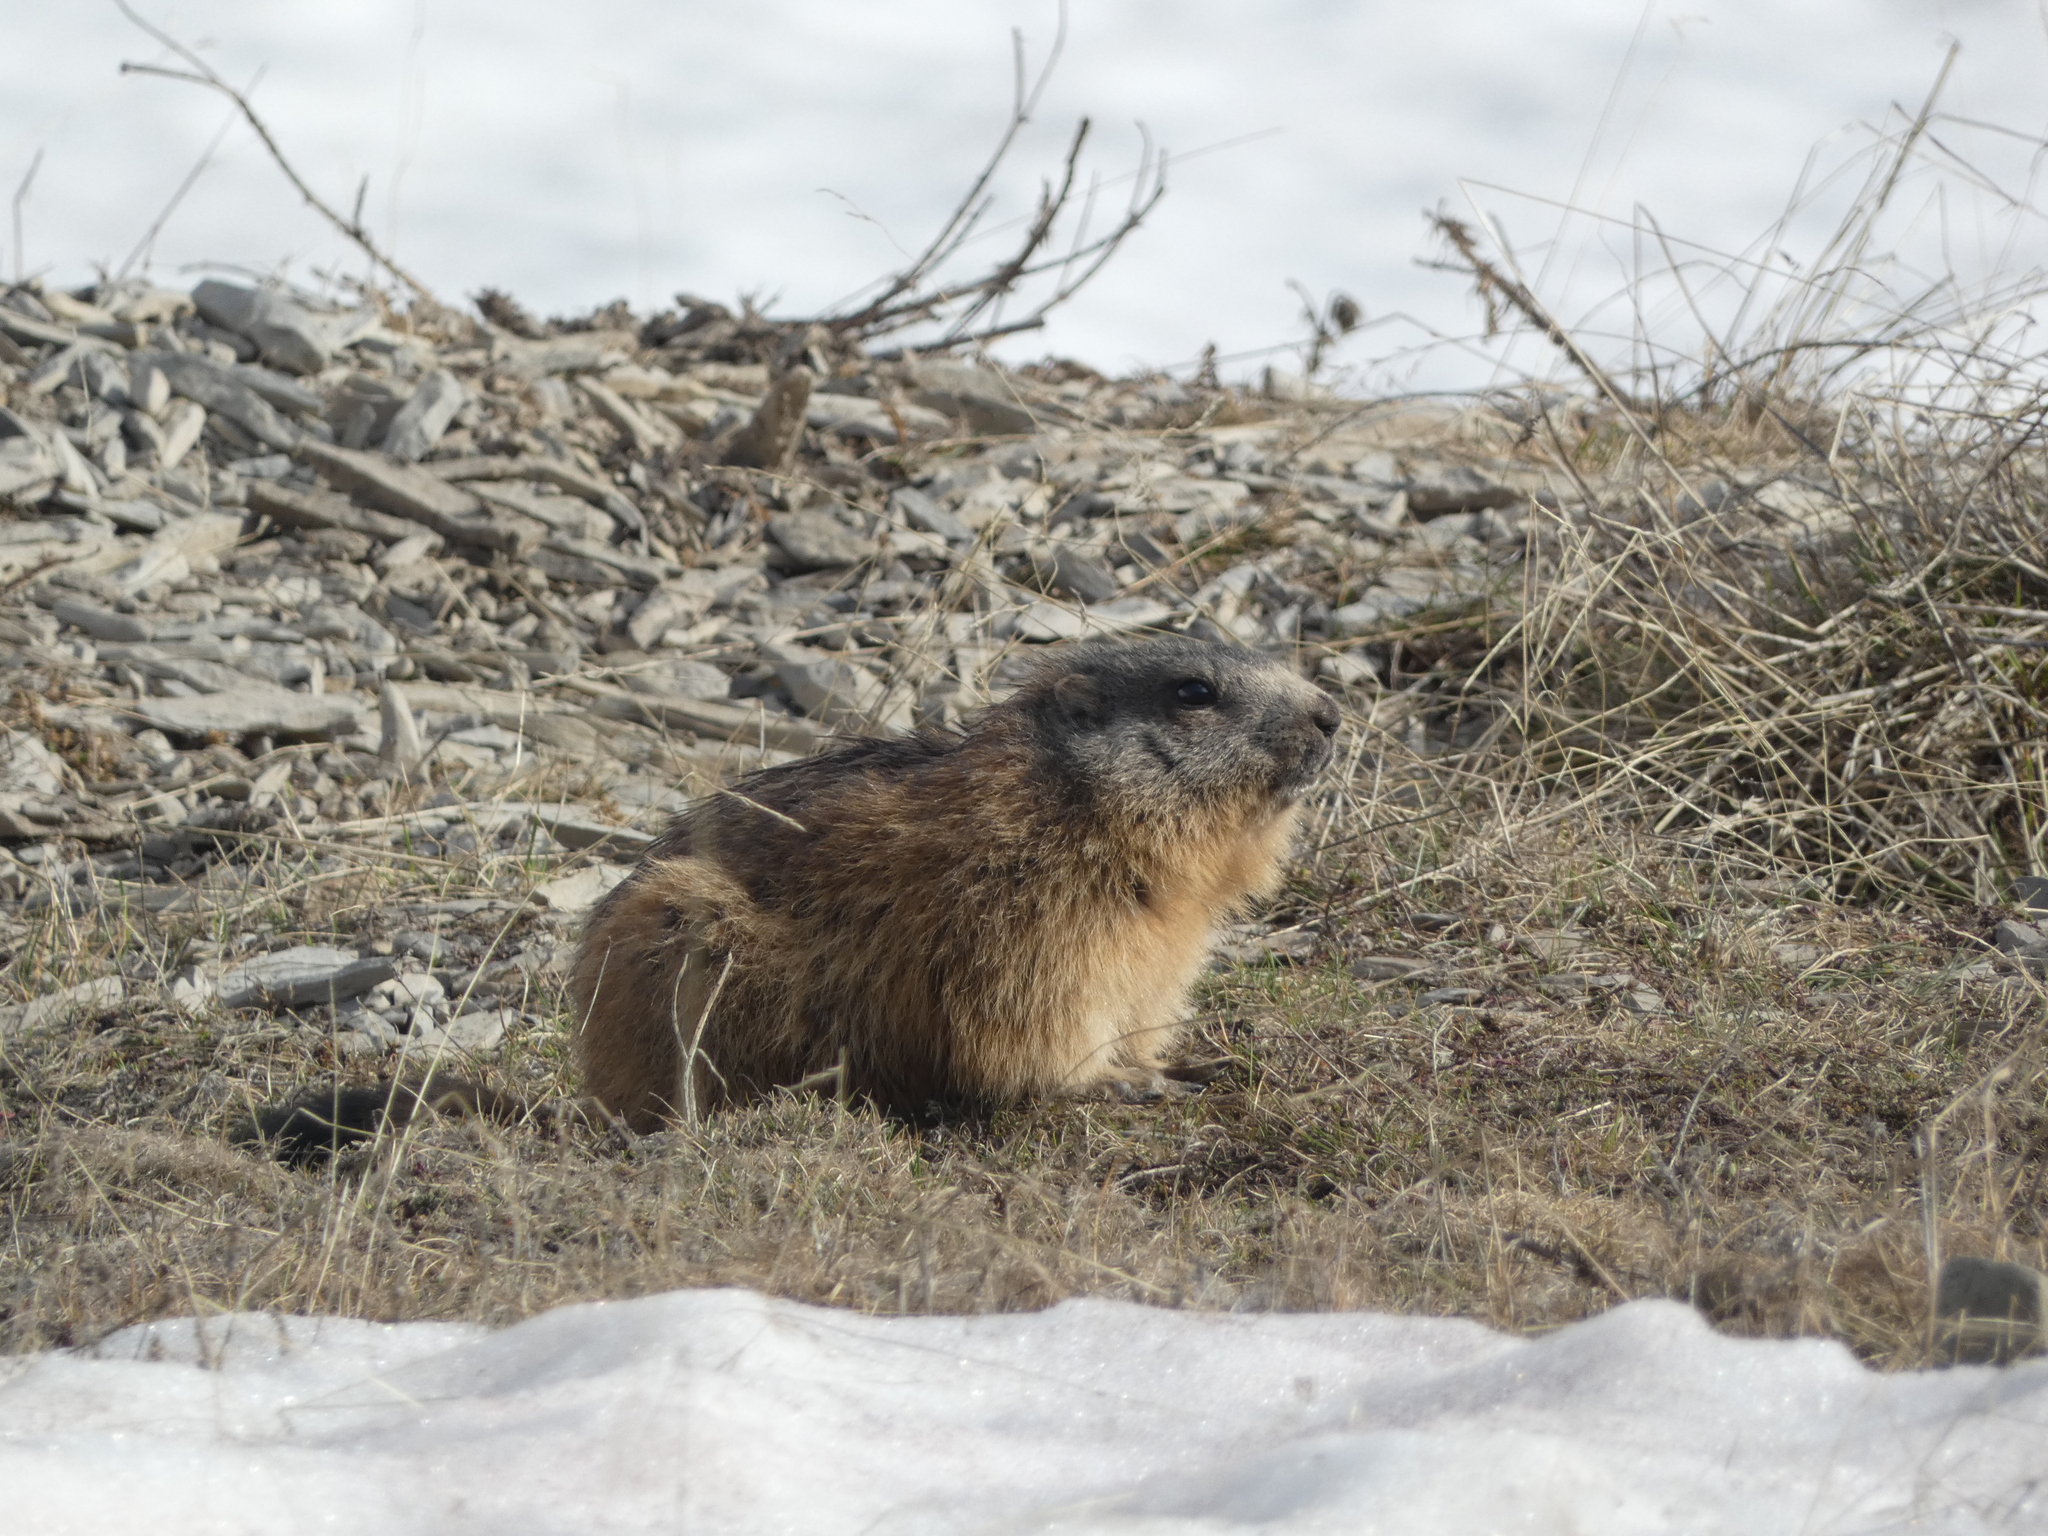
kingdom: Animalia
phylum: Chordata
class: Mammalia
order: Rodentia
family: Sciuridae
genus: Marmota
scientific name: Marmota marmota
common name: Alpine marmot
